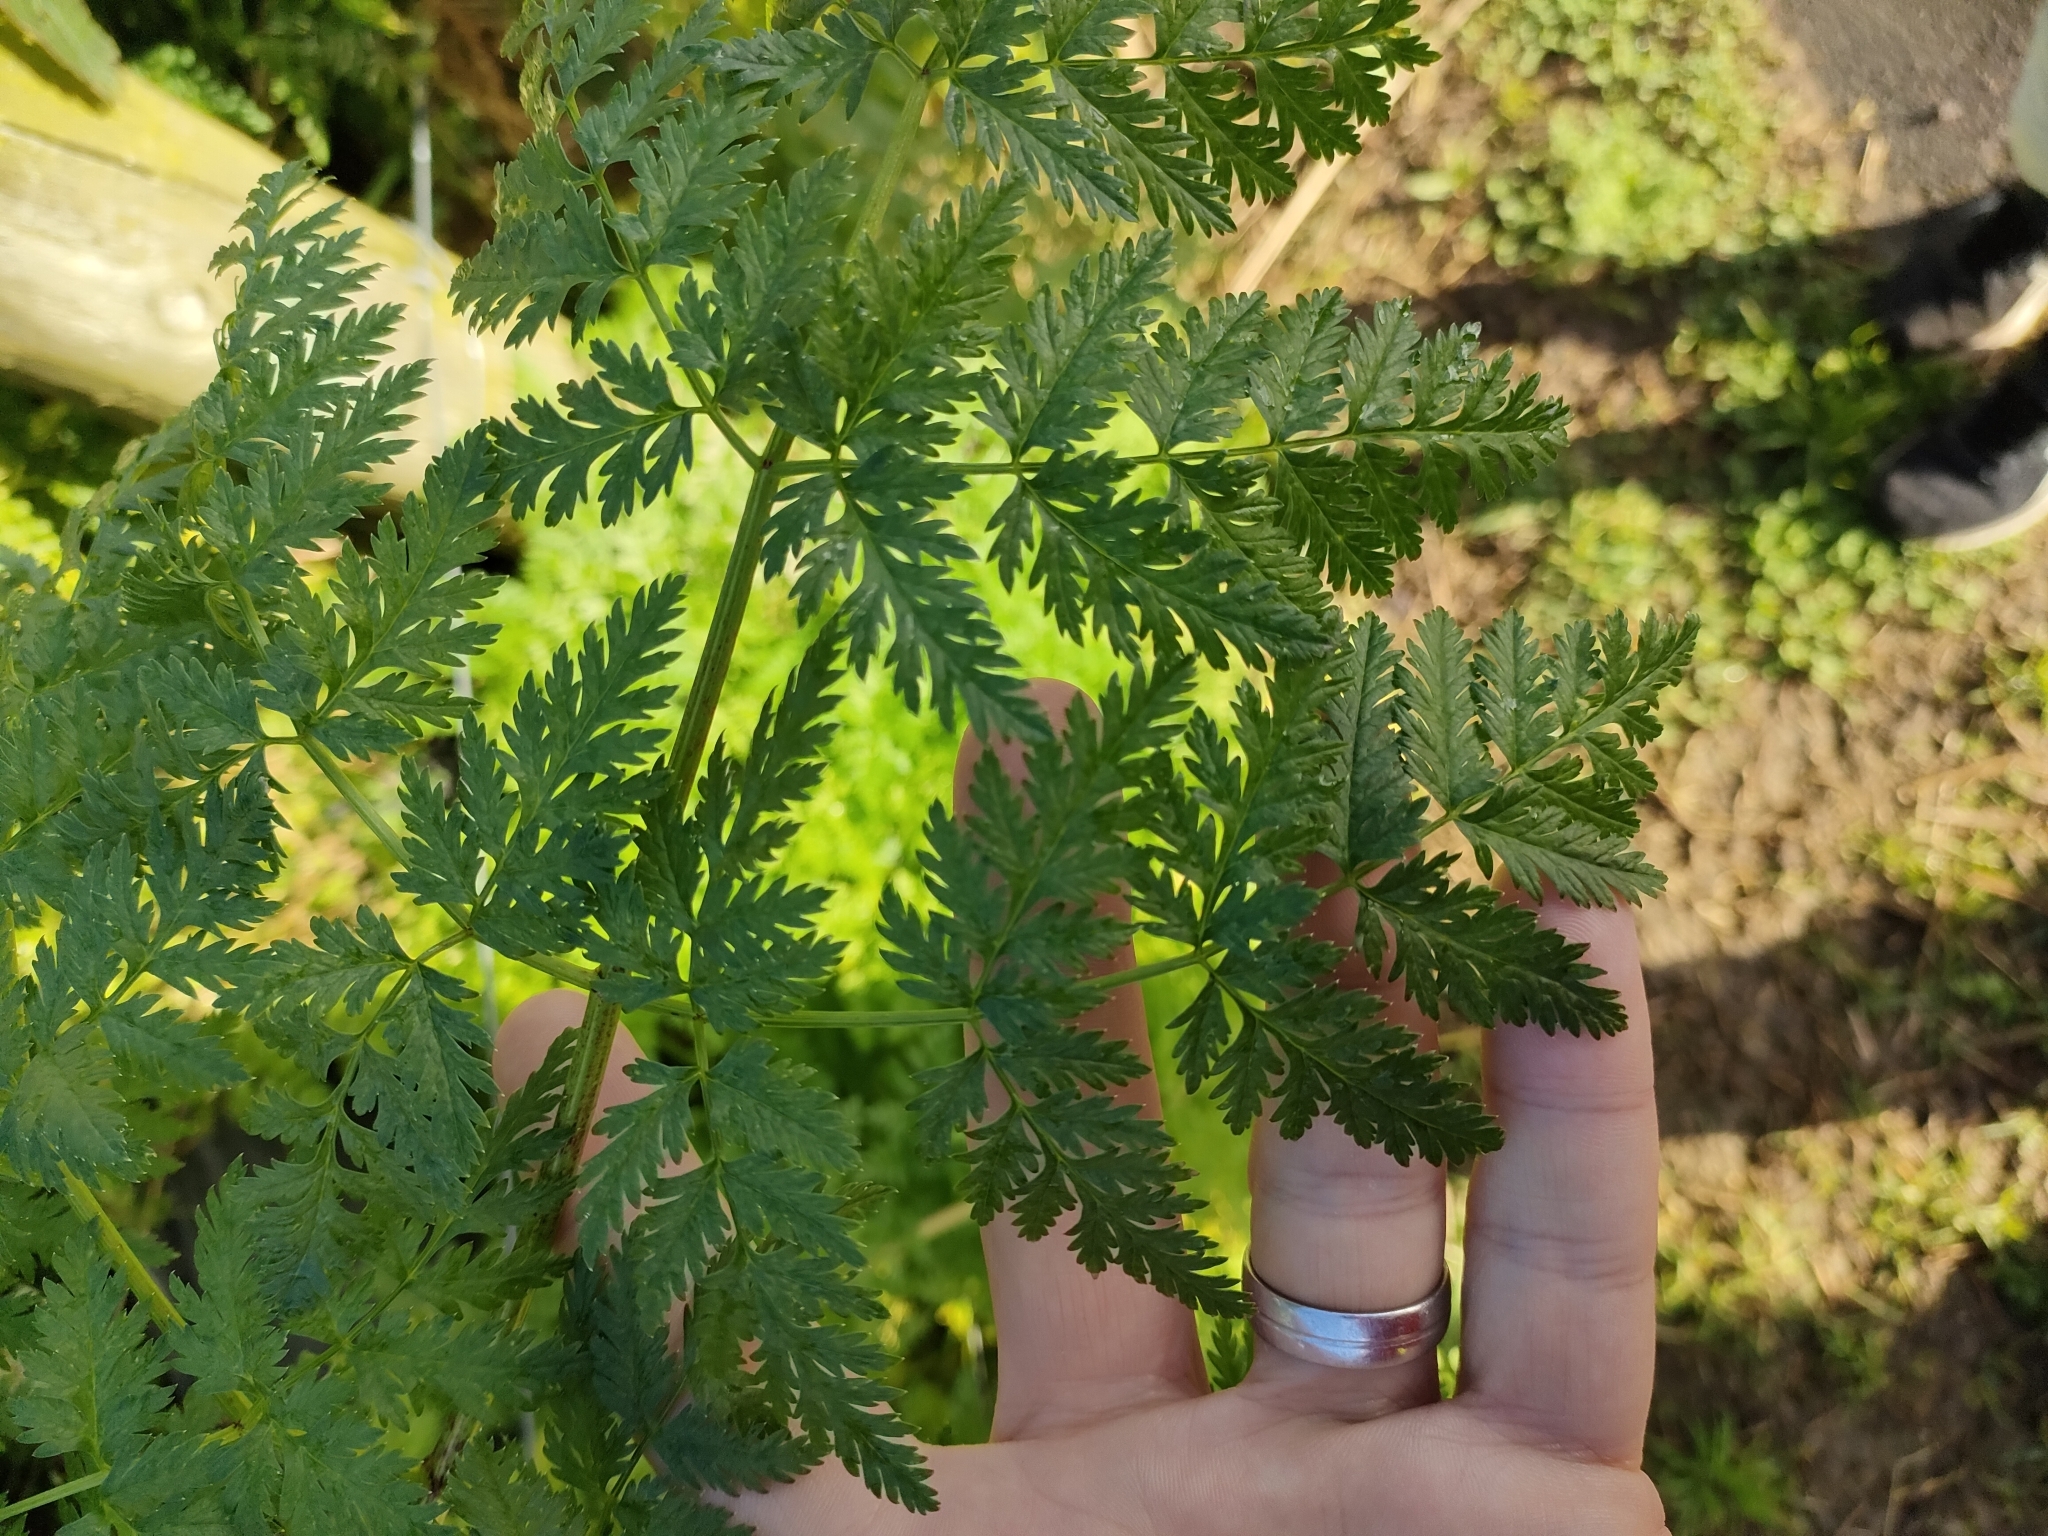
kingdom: Plantae
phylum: Tracheophyta
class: Magnoliopsida
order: Apiales
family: Apiaceae
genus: Conium
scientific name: Conium maculatum
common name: Hemlock
